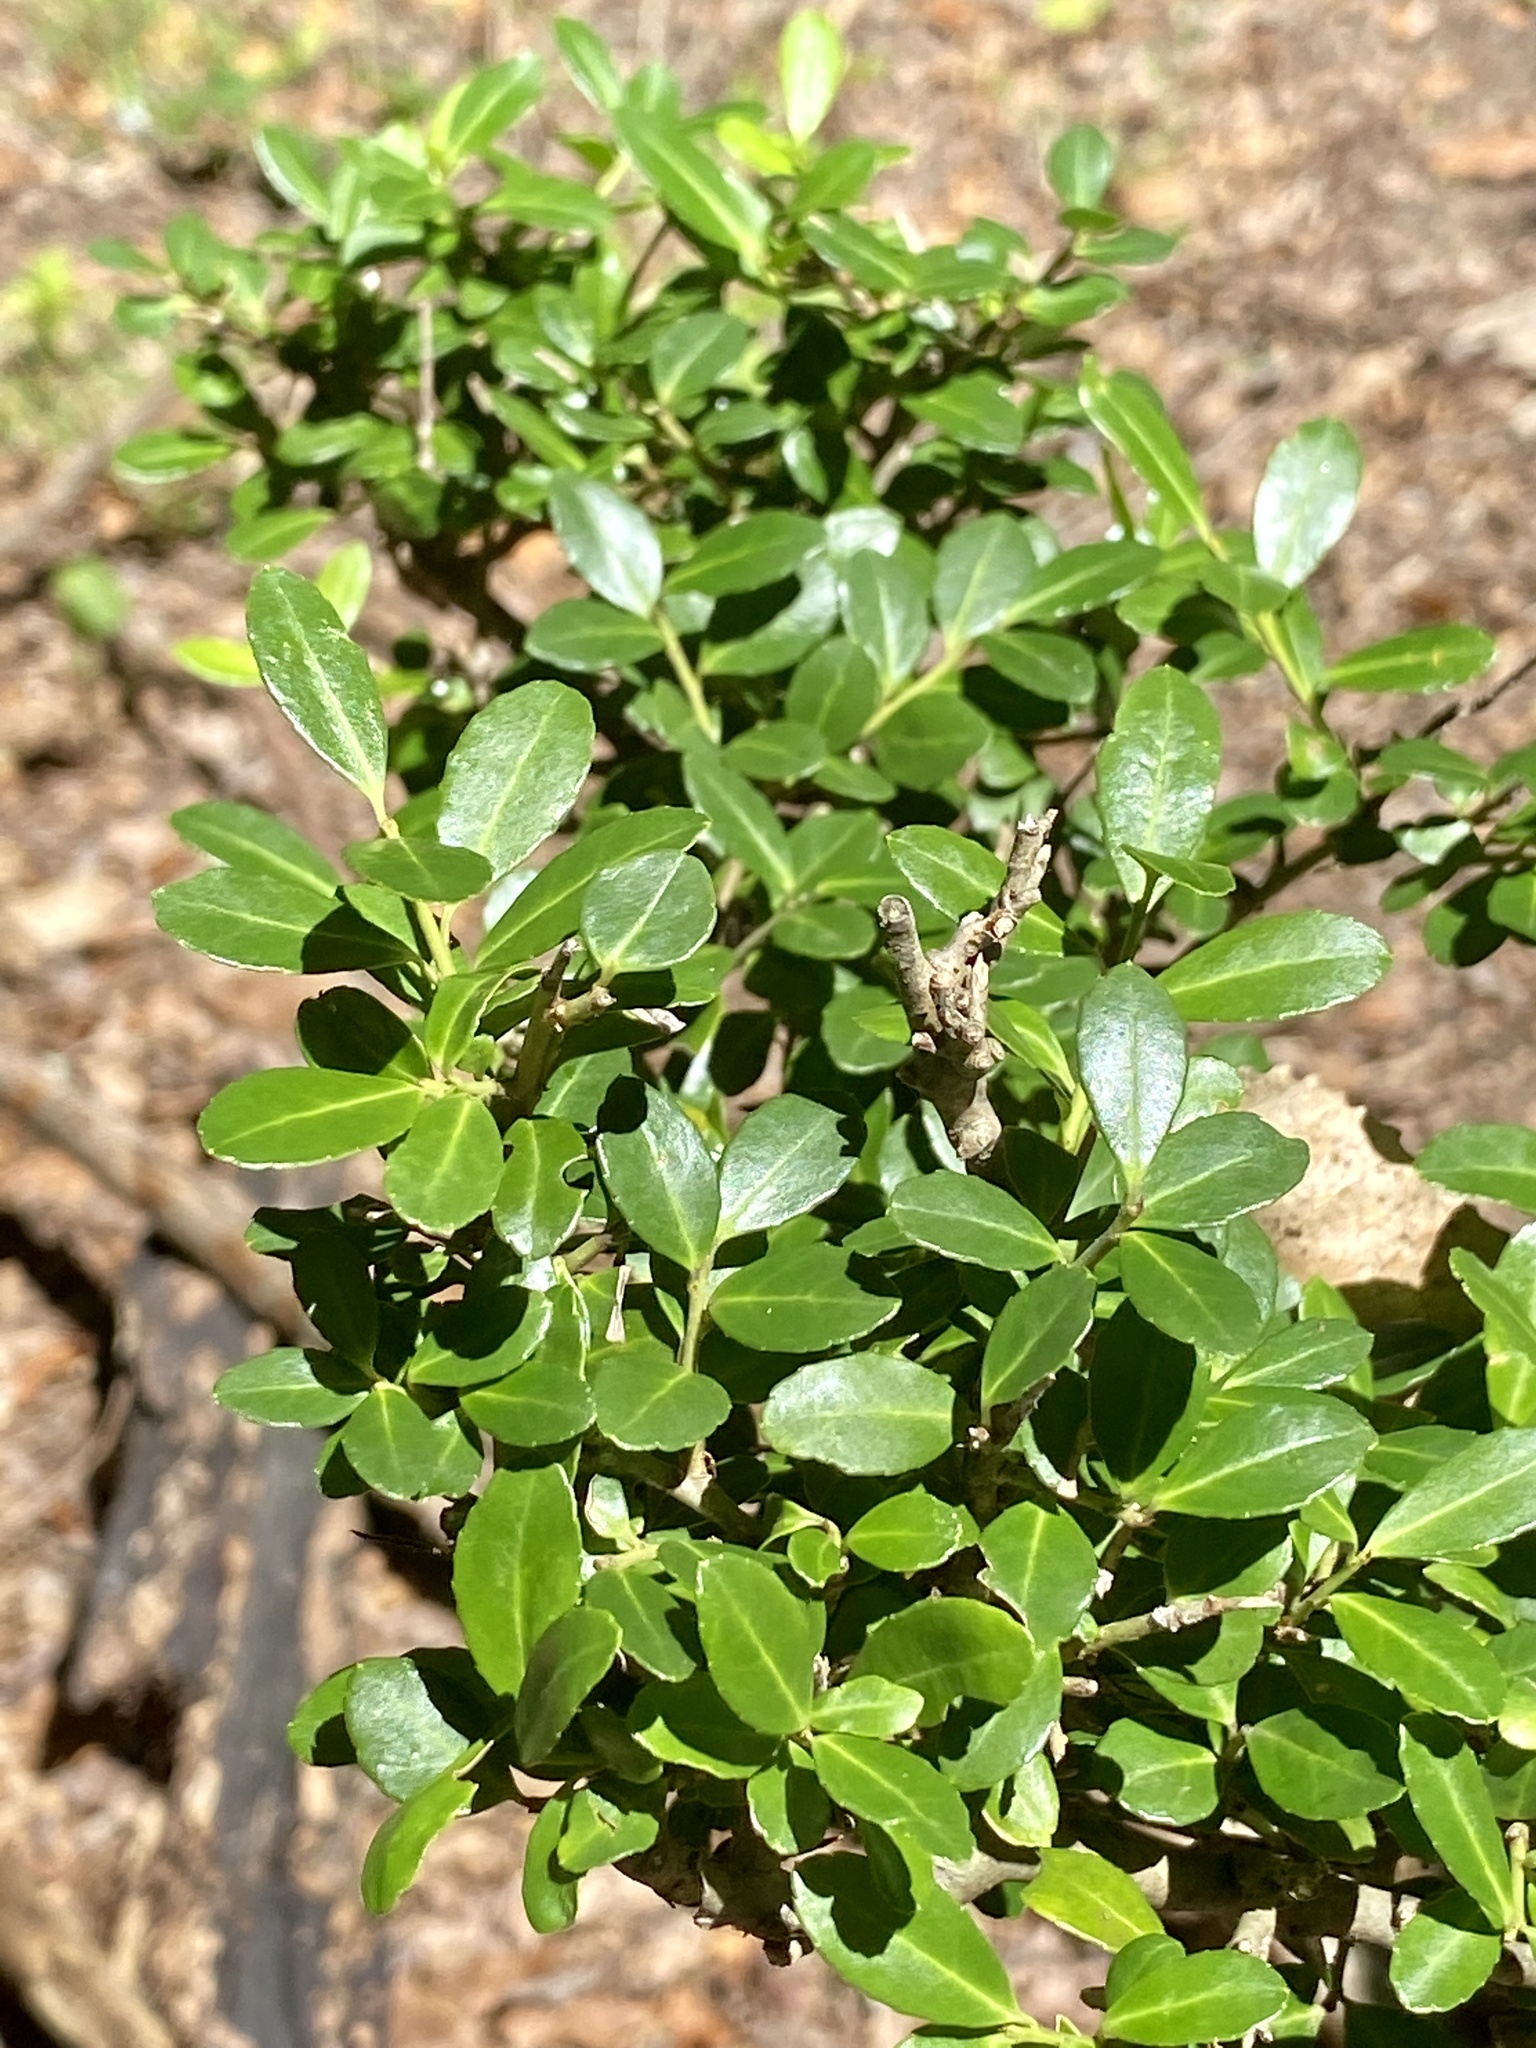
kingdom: Plantae
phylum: Tracheophyta
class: Magnoliopsida
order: Aquifoliales
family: Aquifoliaceae
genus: Ilex
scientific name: Ilex crenata
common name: Japanese holly
